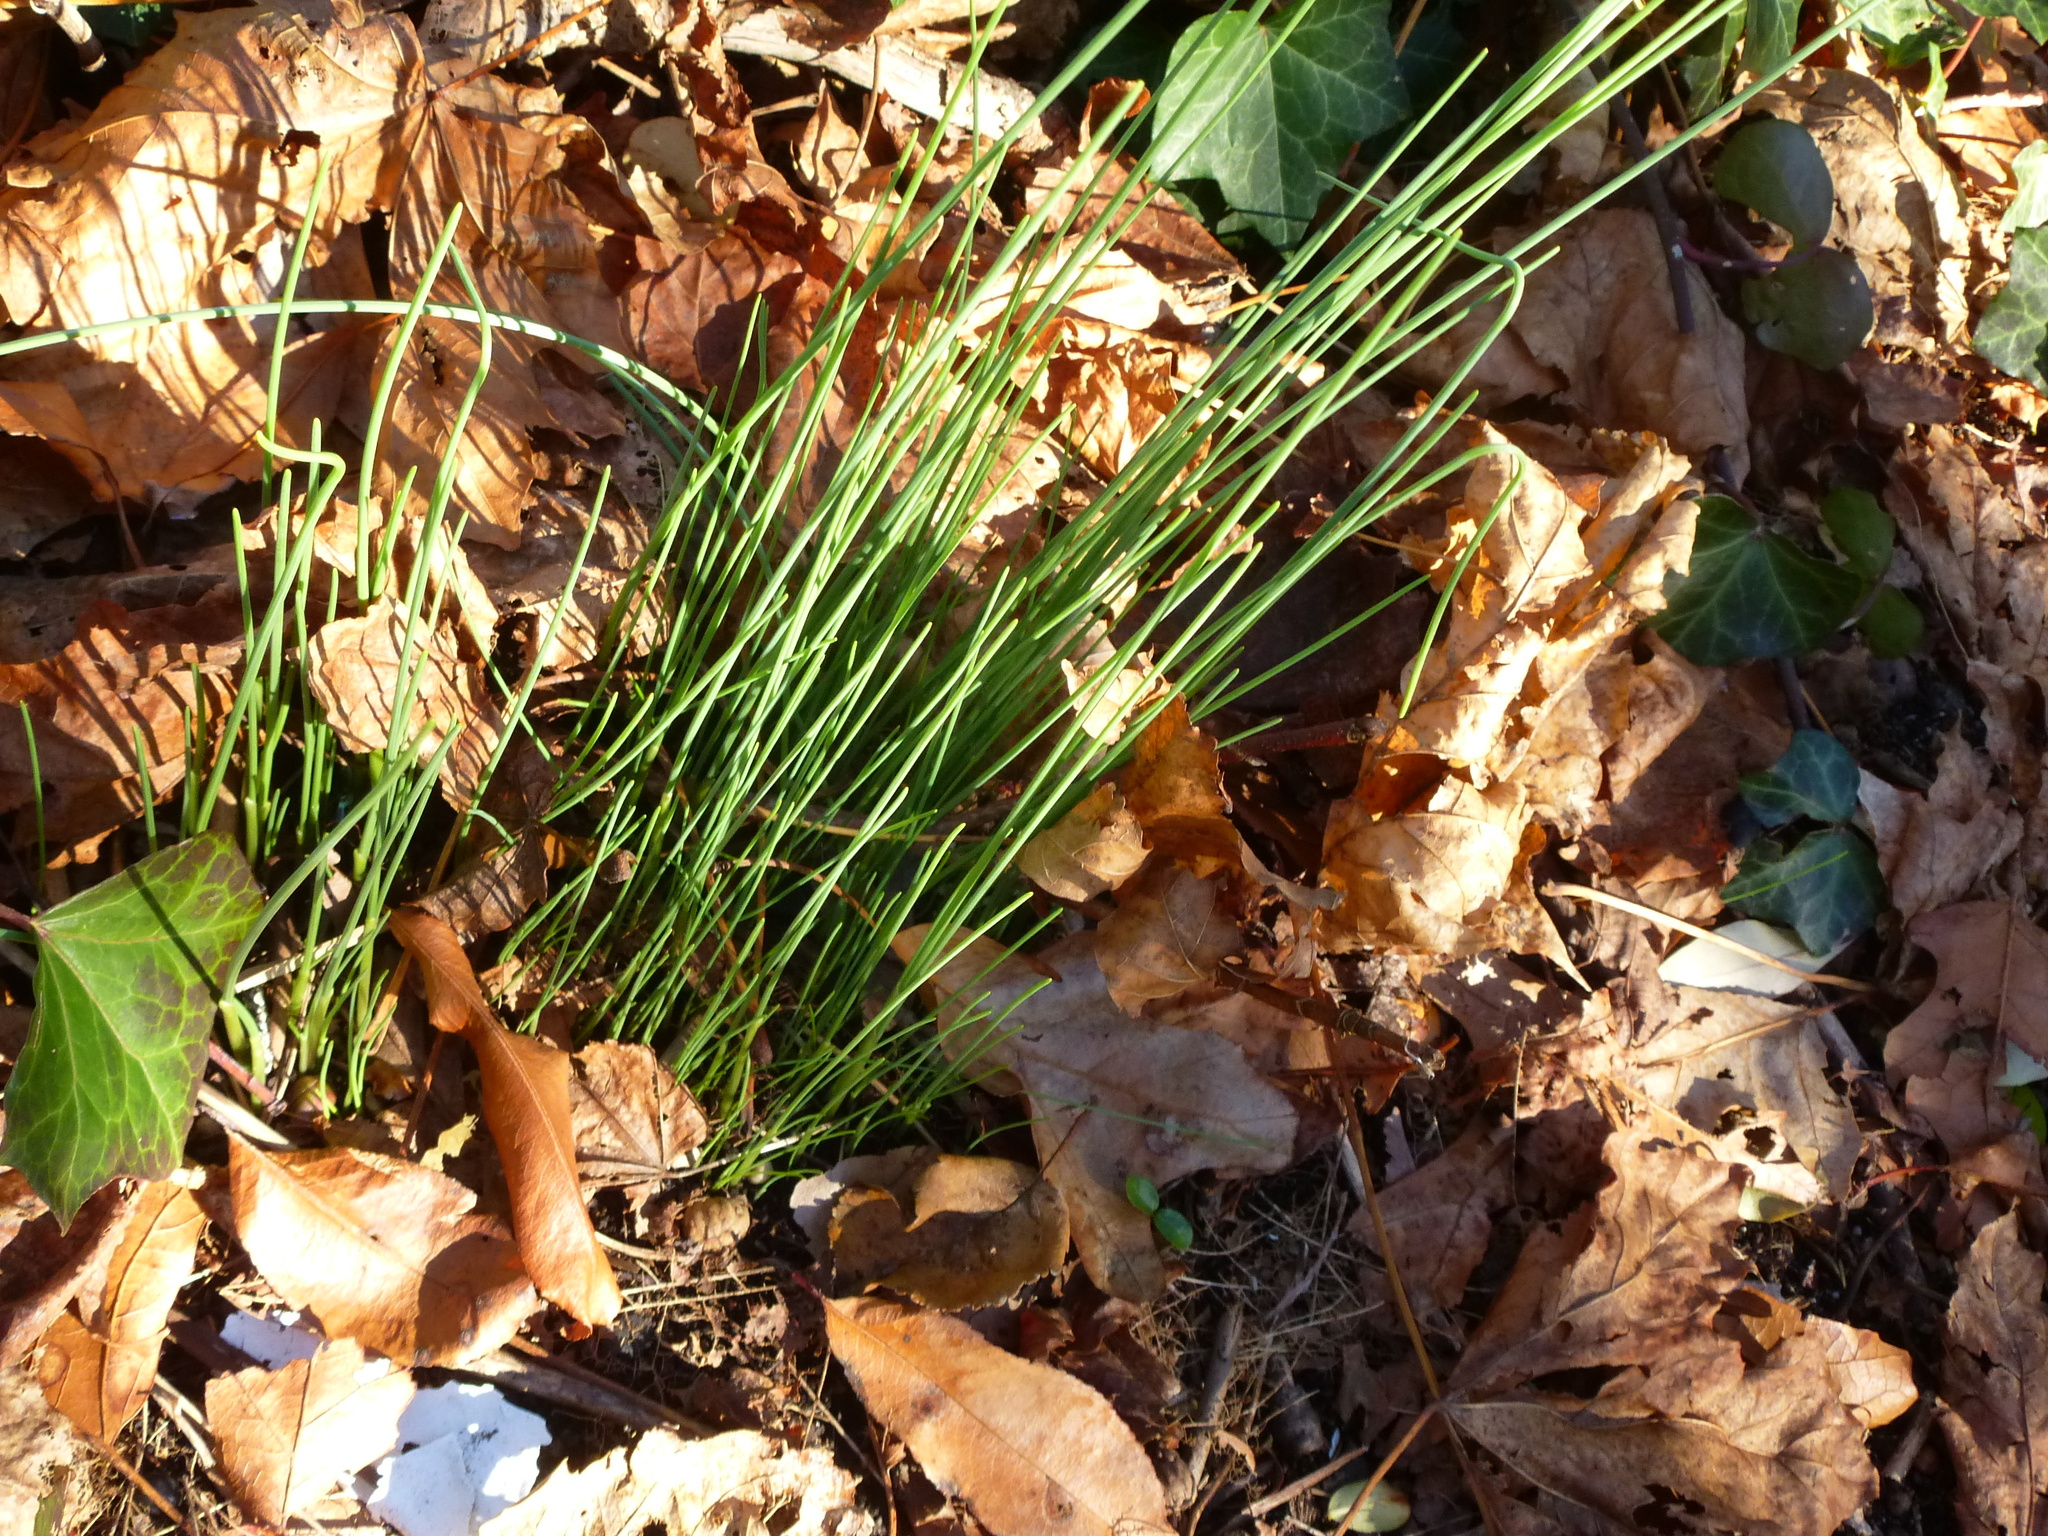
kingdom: Plantae
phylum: Tracheophyta
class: Liliopsida
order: Asparagales
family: Amaryllidaceae
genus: Allium
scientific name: Allium vineale
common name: Crow garlic
